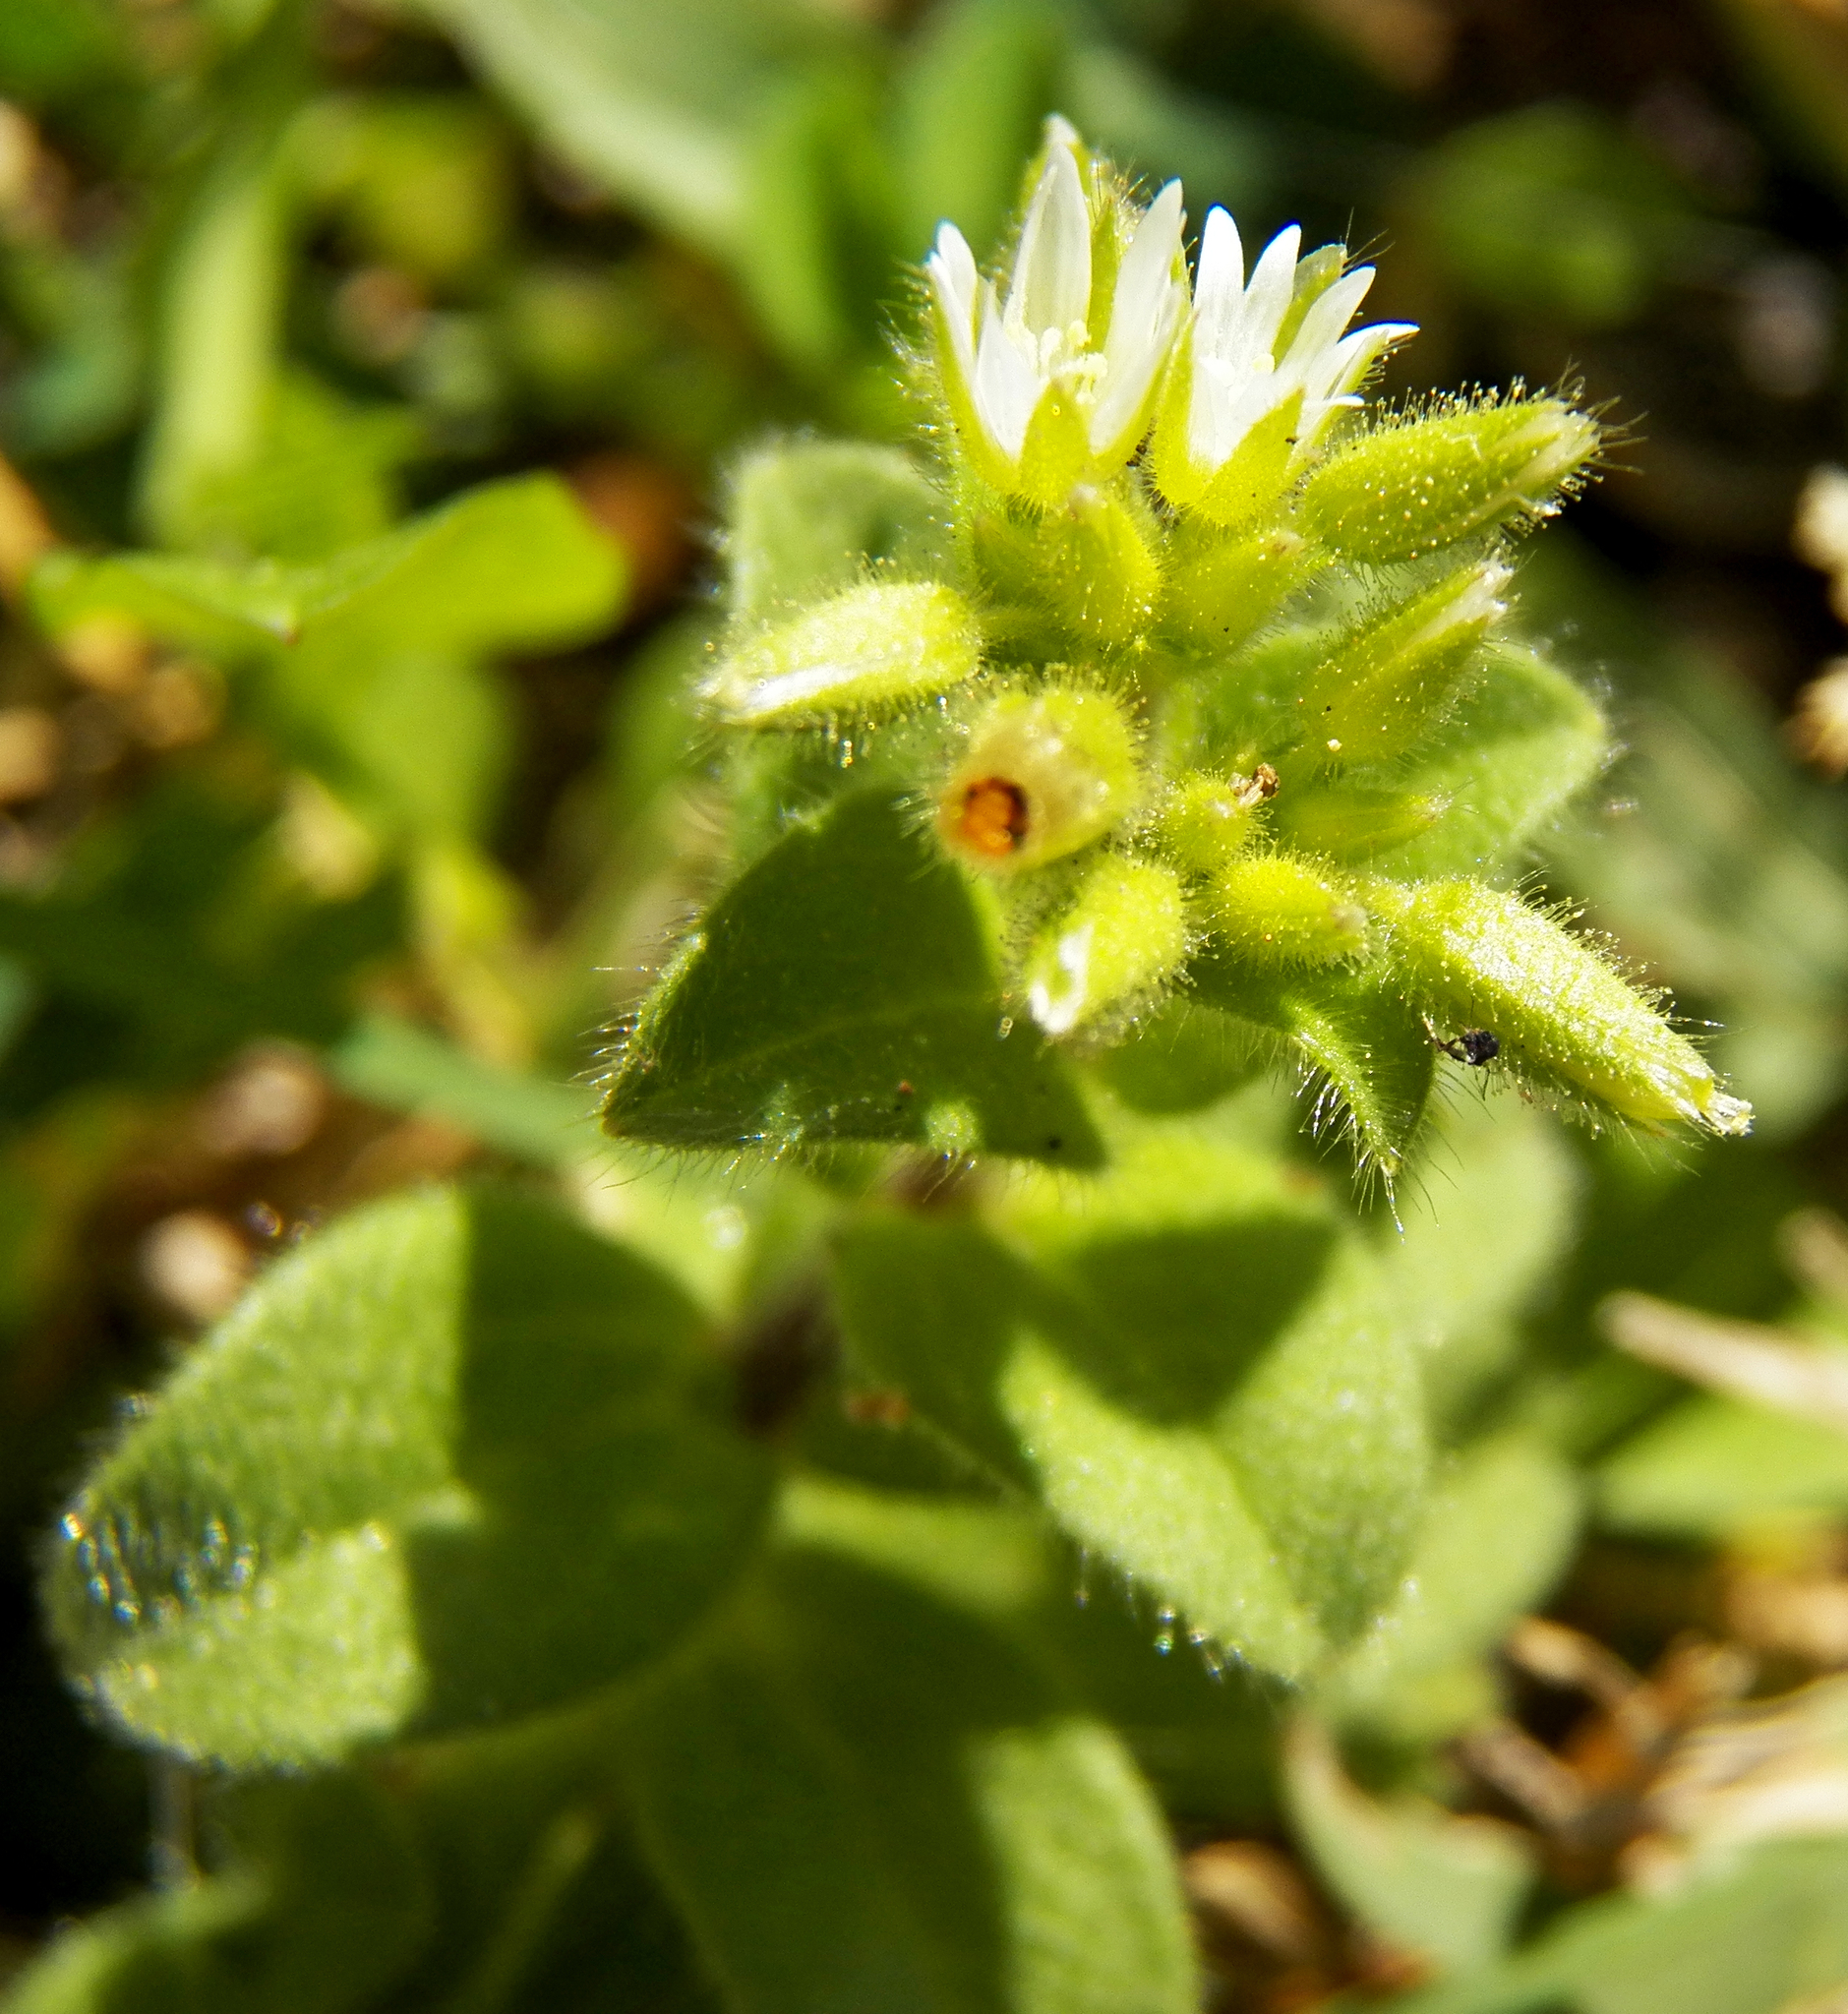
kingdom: Plantae
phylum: Tracheophyta
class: Magnoliopsida
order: Caryophyllales
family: Caryophyllaceae
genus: Cerastium
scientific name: Cerastium glomeratum
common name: Sticky chickweed
